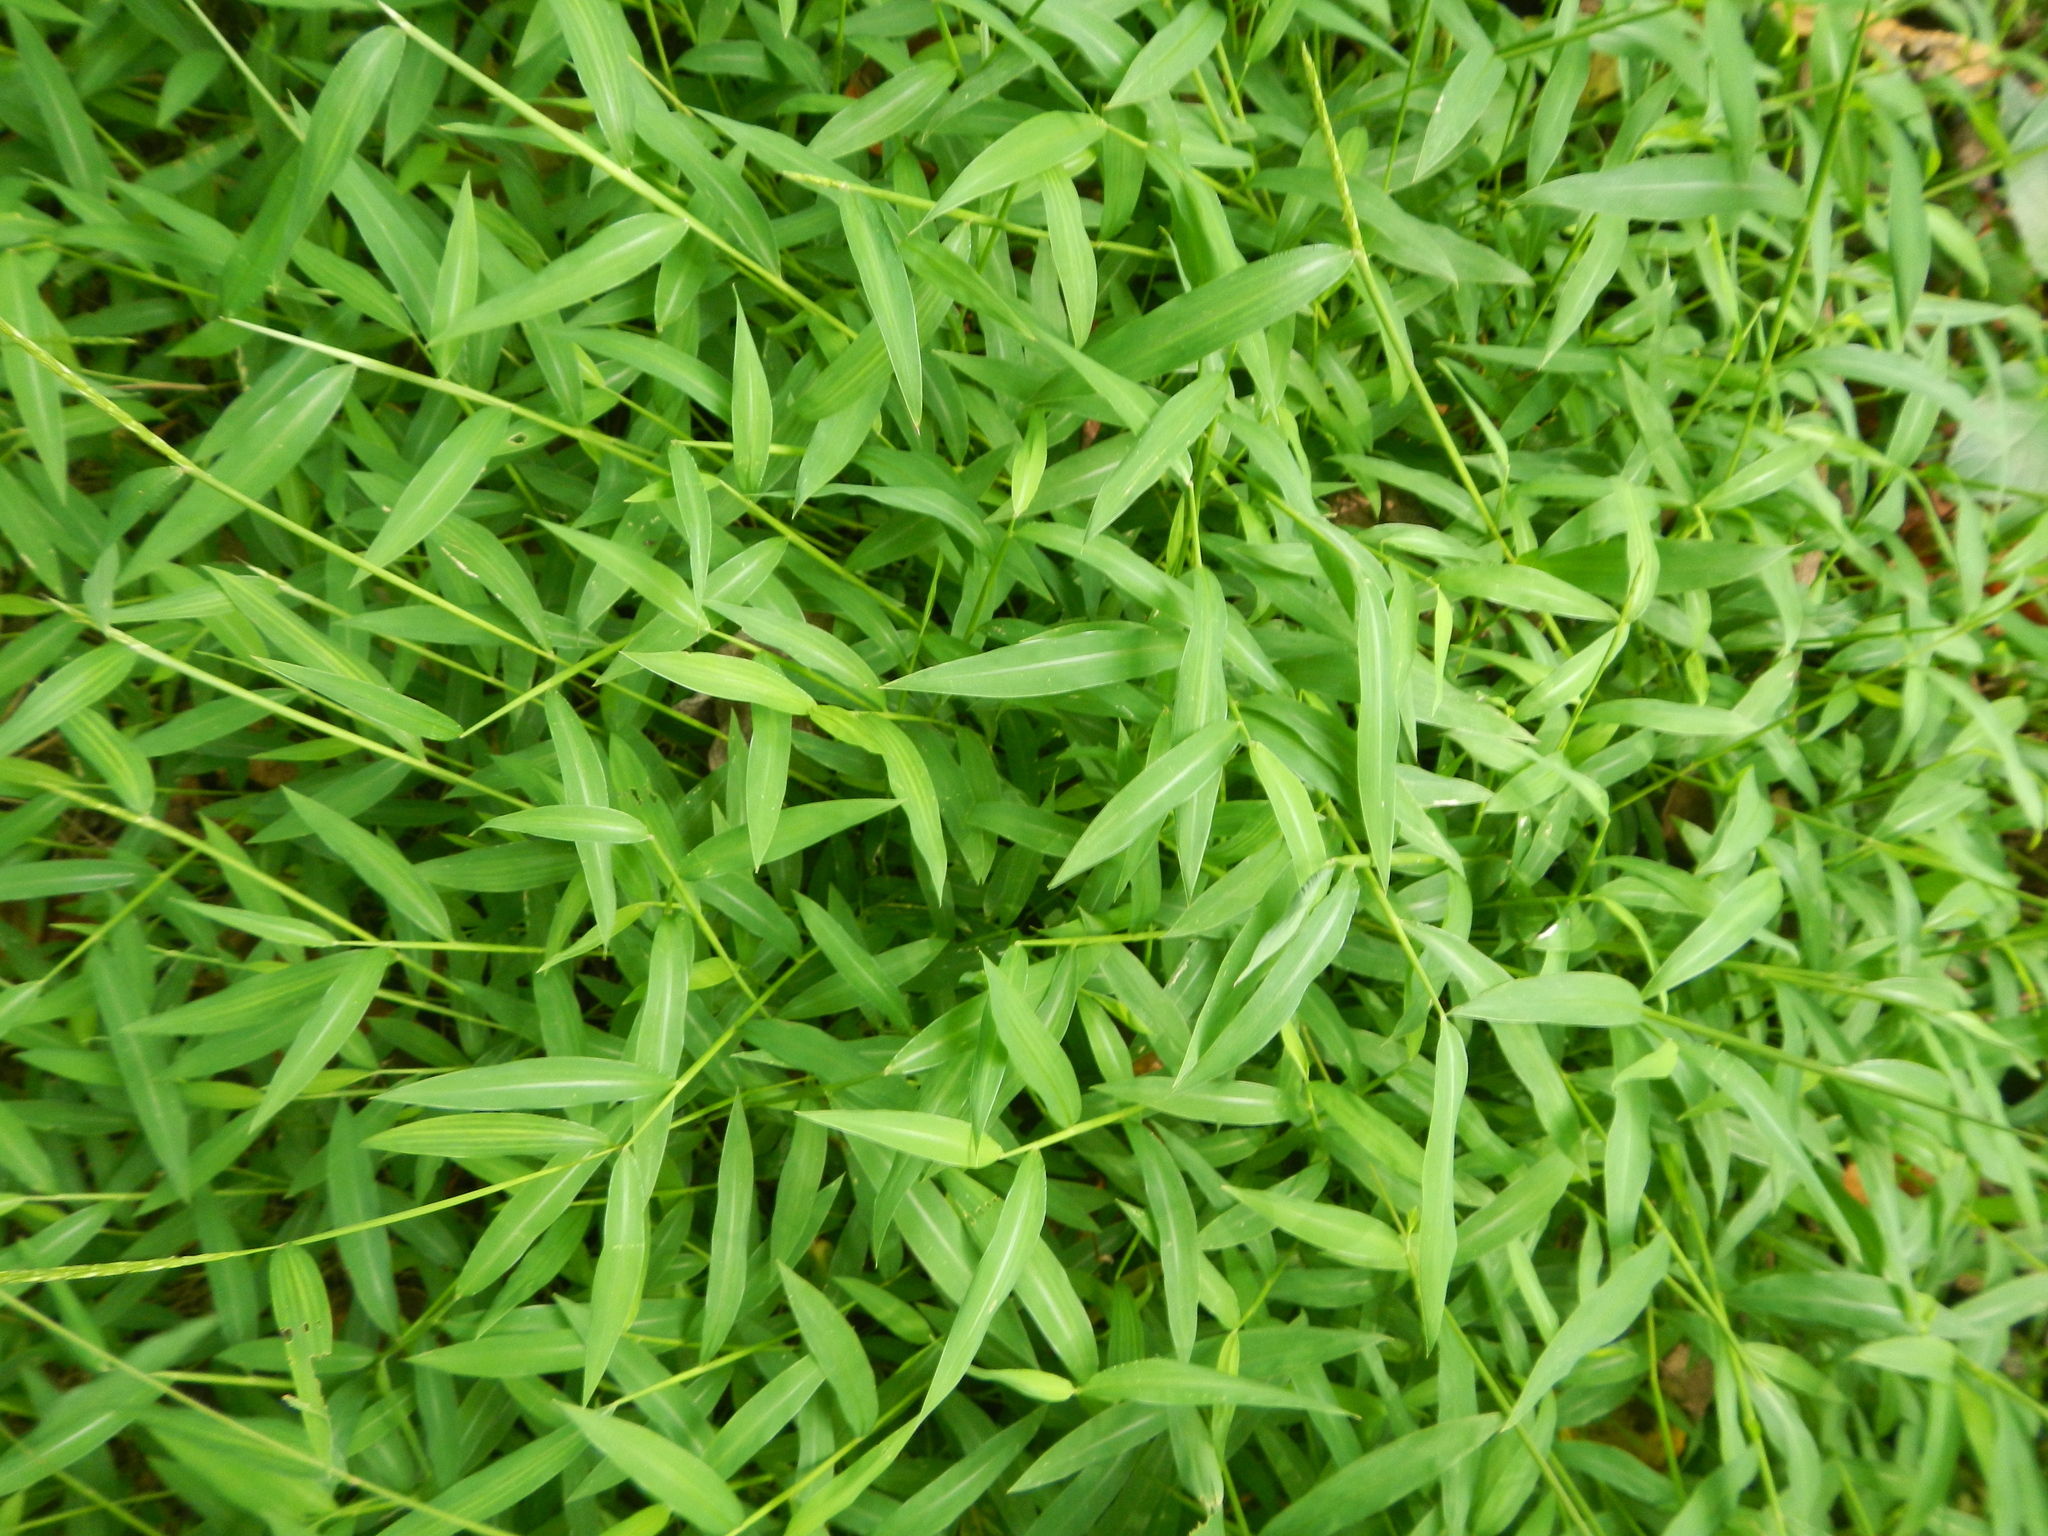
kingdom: Plantae
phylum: Tracheophyta
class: Liliopsida
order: Poales
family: Poaceae
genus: Microstegium
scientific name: Microstegium vimineum
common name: Japanese stiltgrass
